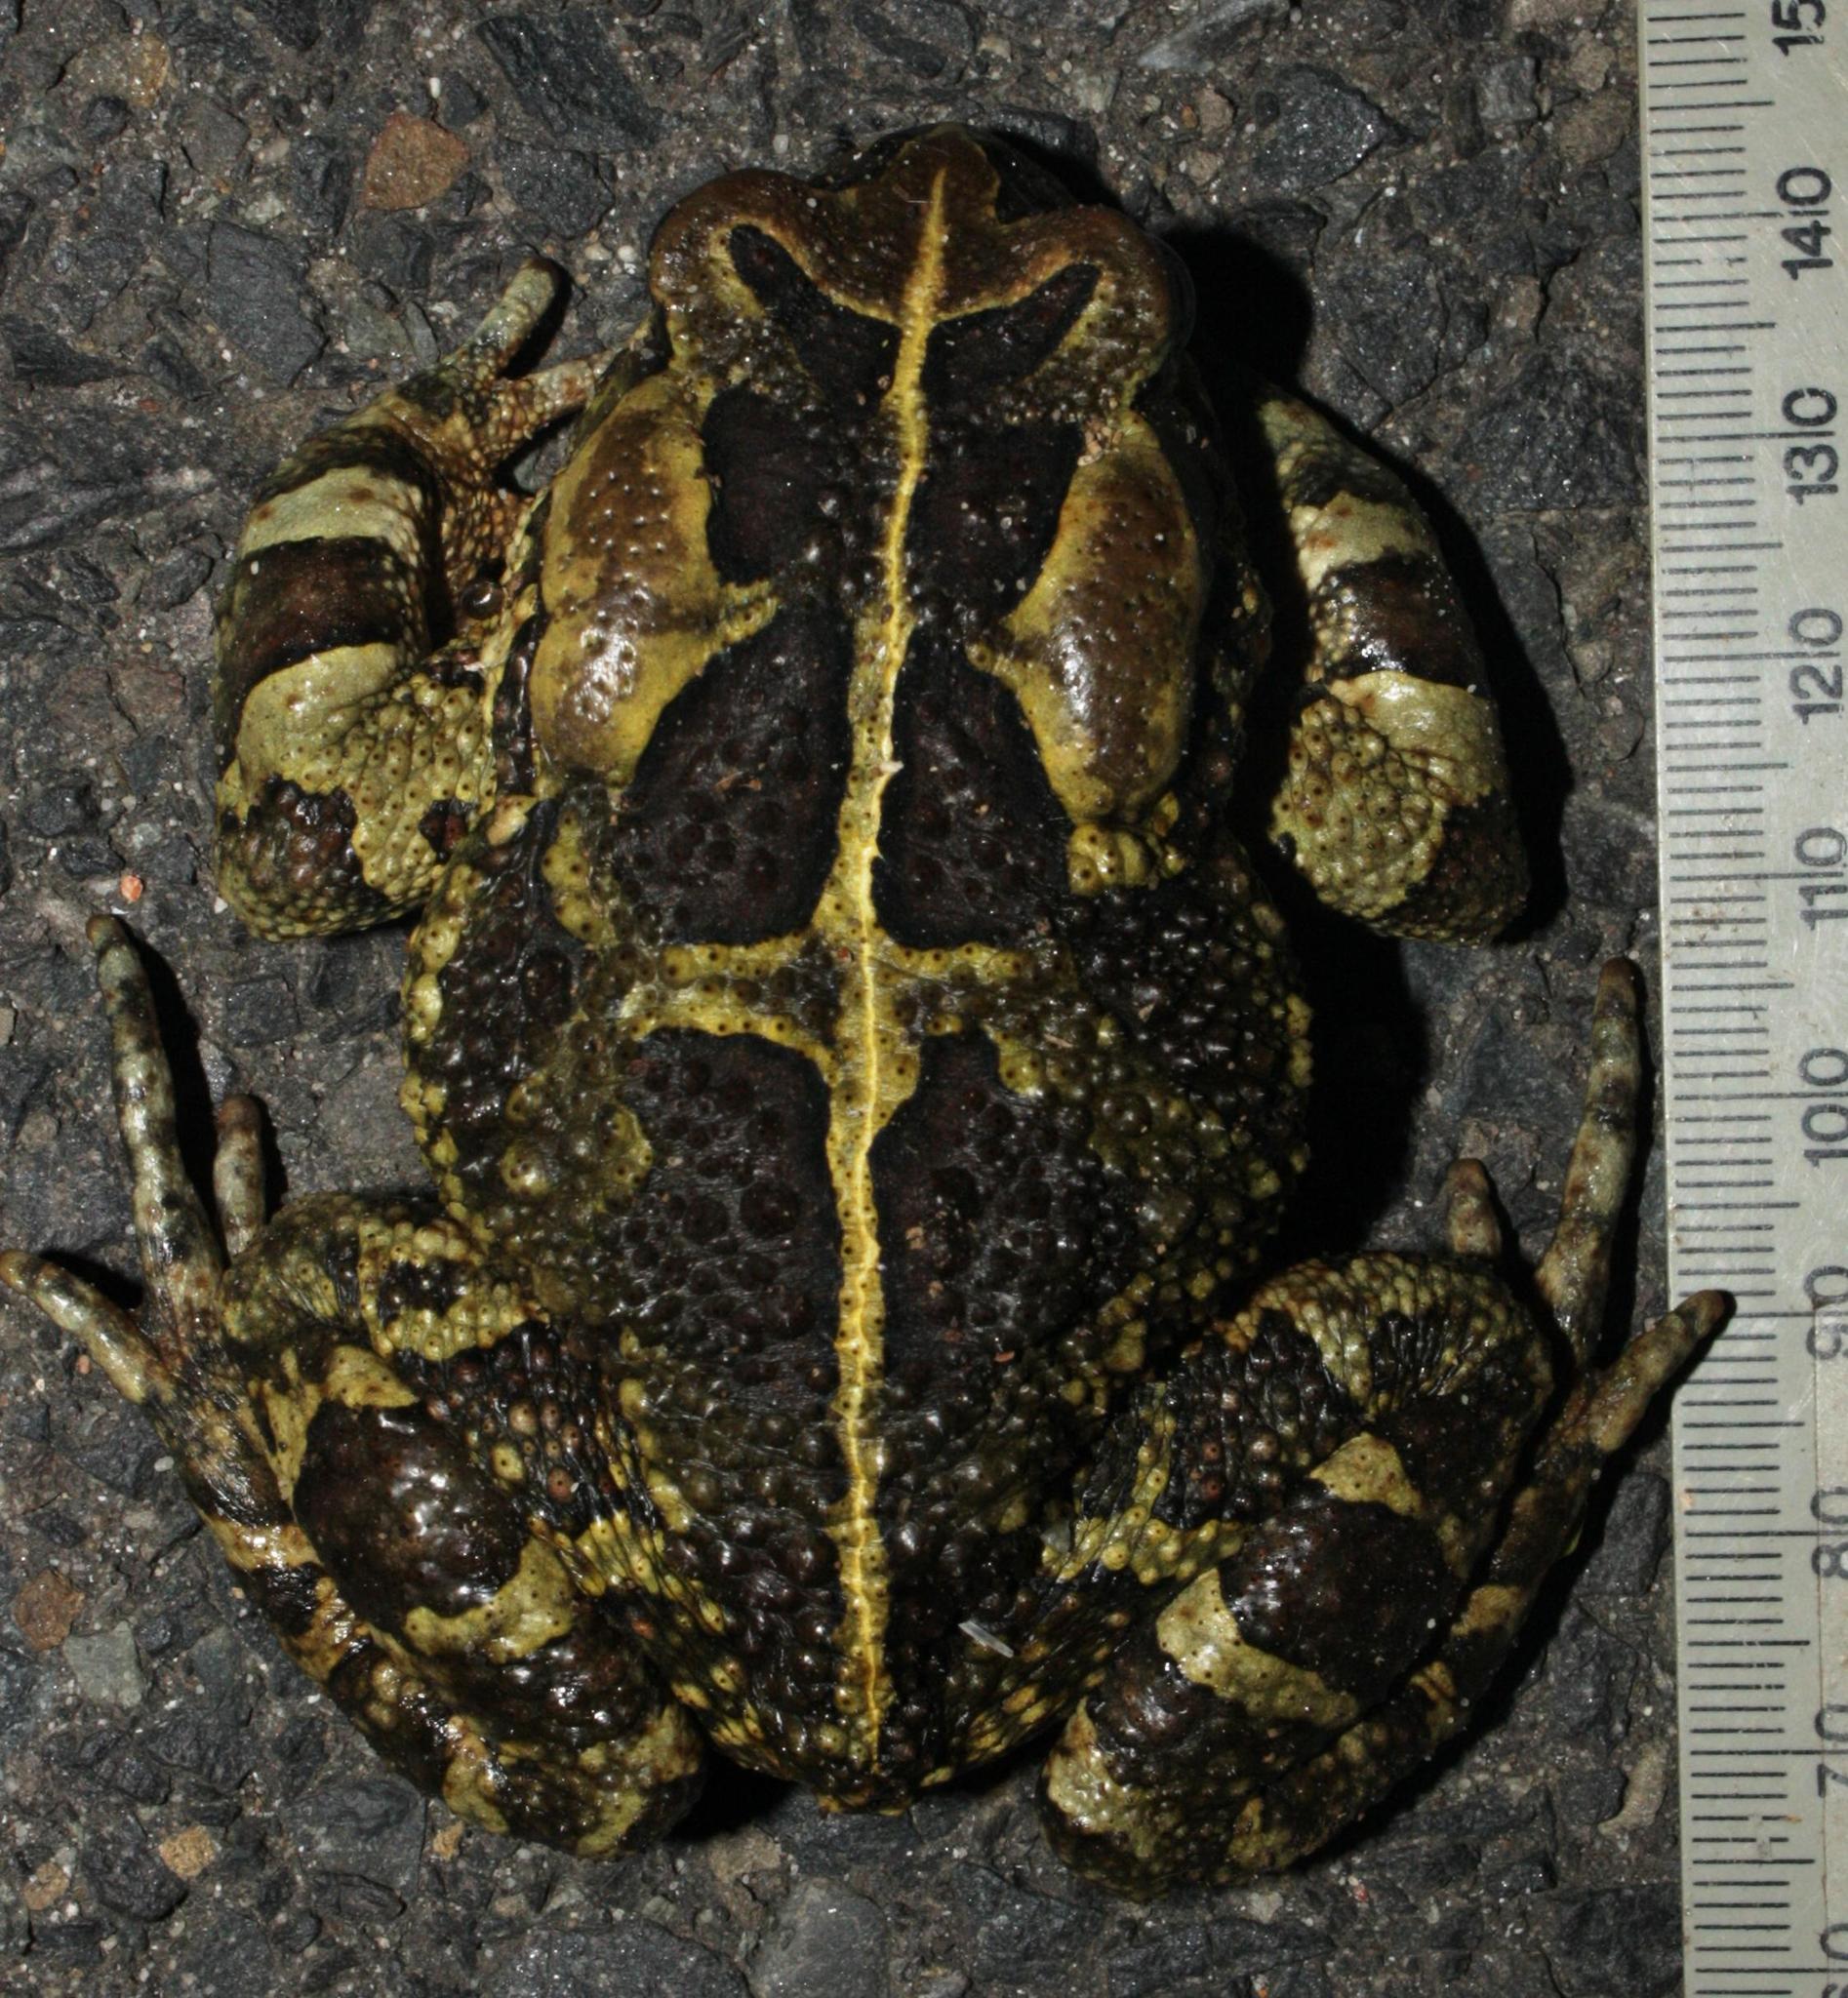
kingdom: Animalia
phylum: Chordata
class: Amphibia
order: Anura
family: Bufonidae
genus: Sclerophrys
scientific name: Sclerophrys pantherina
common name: Panther toad
